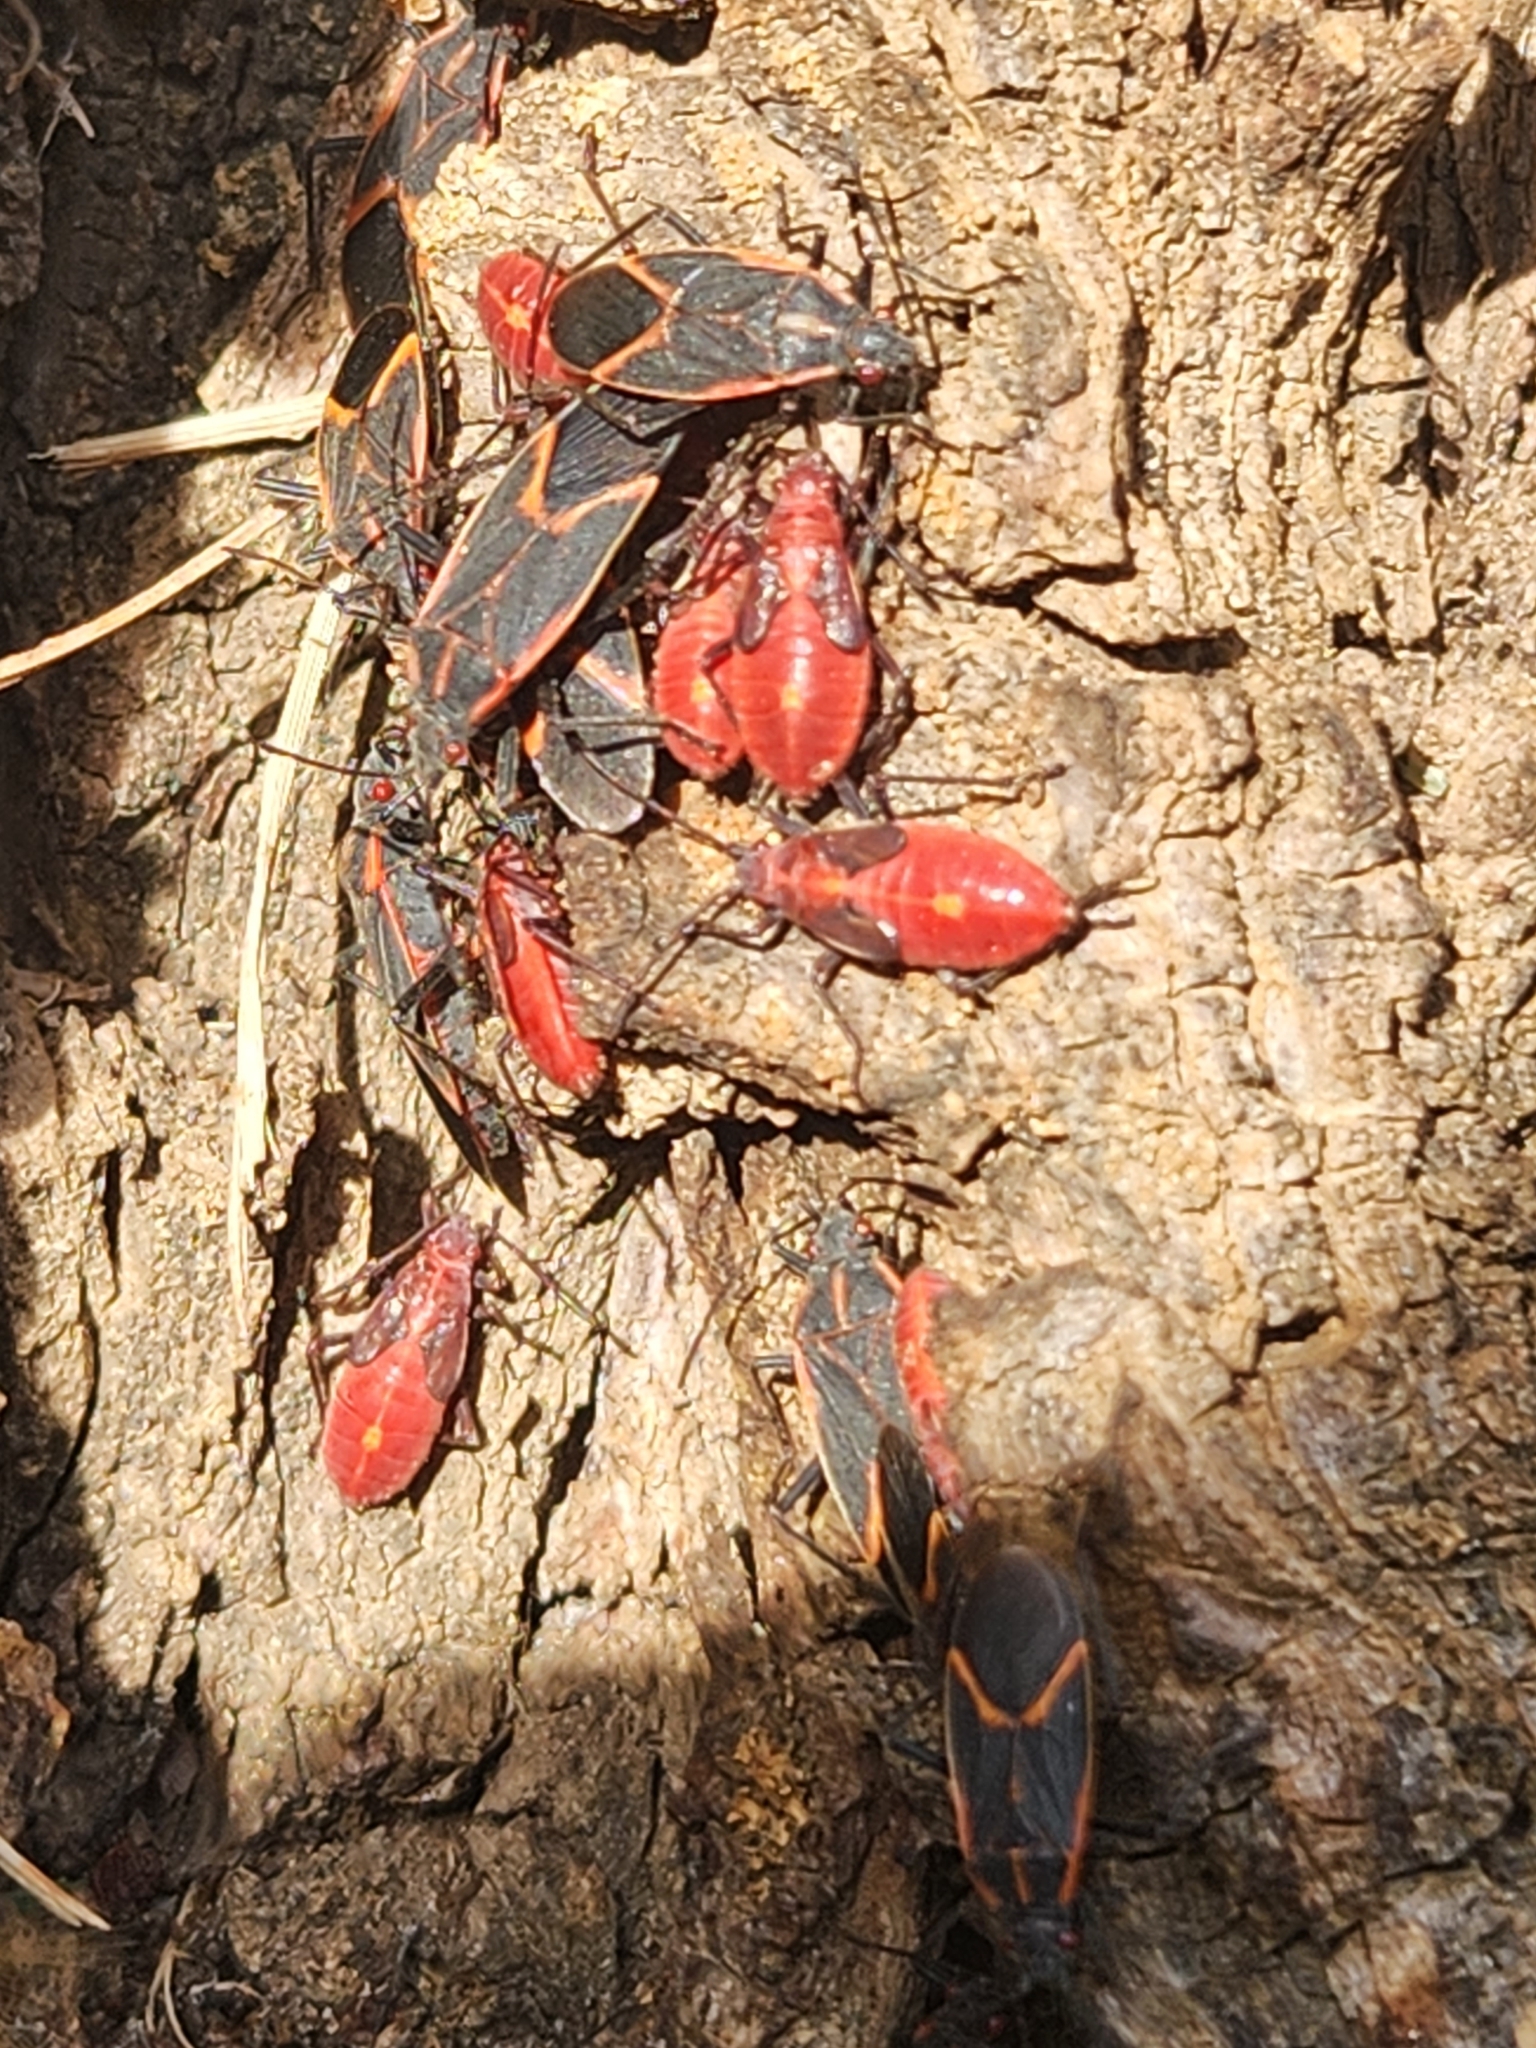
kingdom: Animalia
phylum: Arthropoda
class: Insecta
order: Hemiptera
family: Rhopalidae
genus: Boisea
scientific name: Boisea trivittata
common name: Boxelder bug
